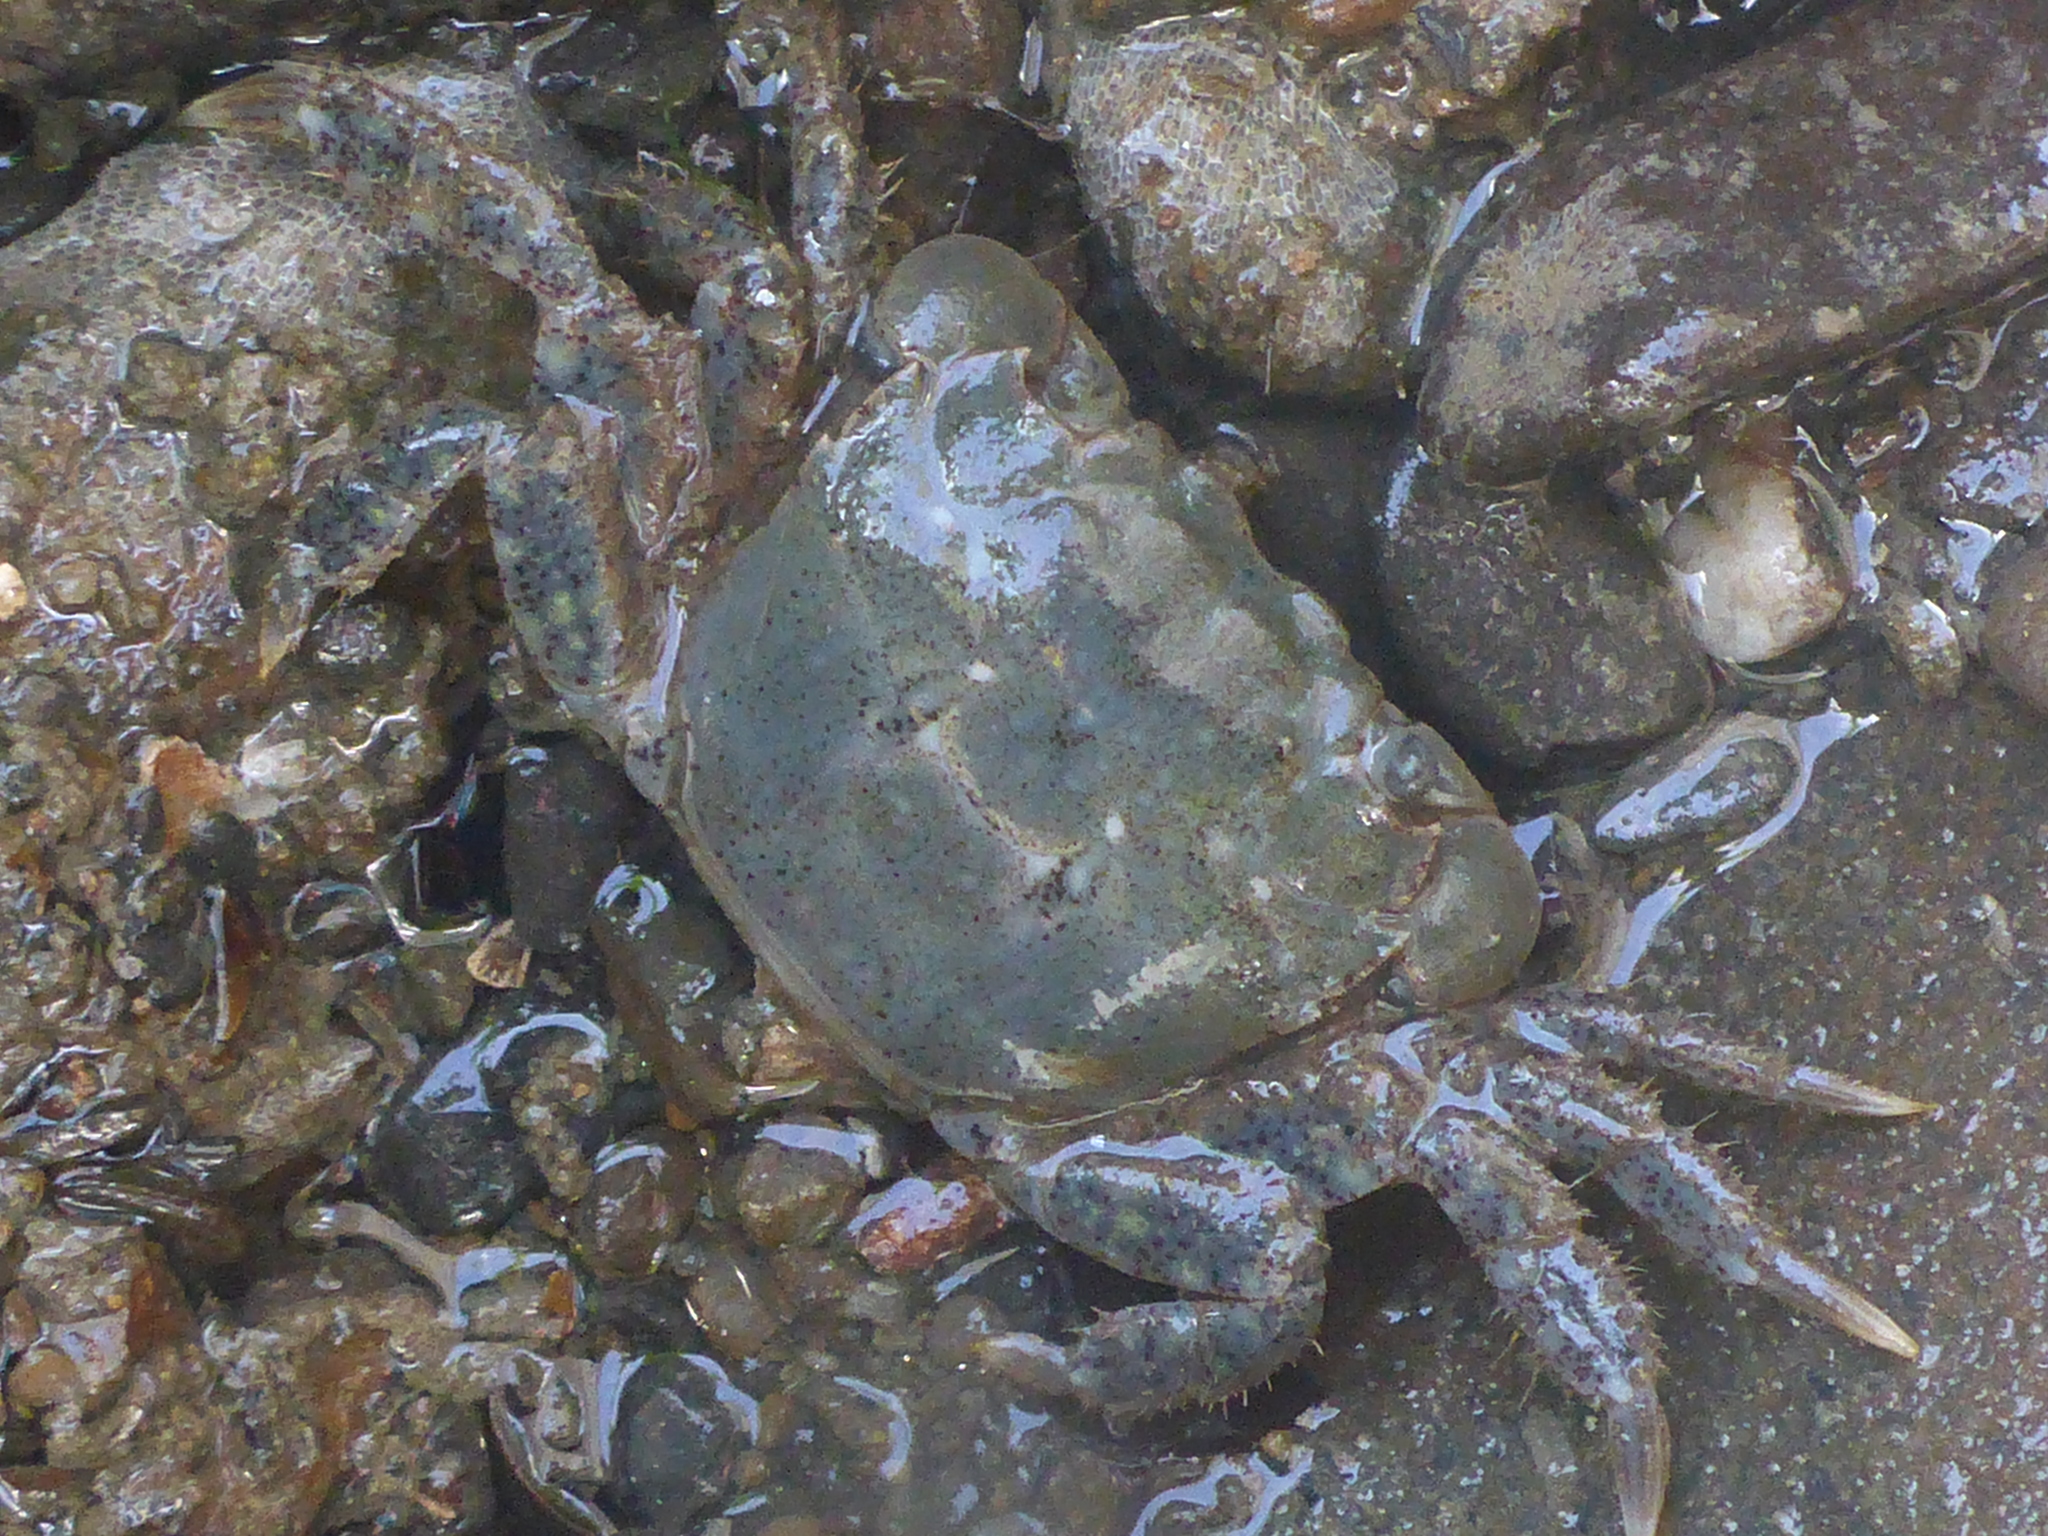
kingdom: Animalia
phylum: Arthropoda
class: Malacostraca
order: Decapoda
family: Varunidae
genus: Hemigrapsus
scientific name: Hemigrapsus oregonensis
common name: Yellow shore crab
